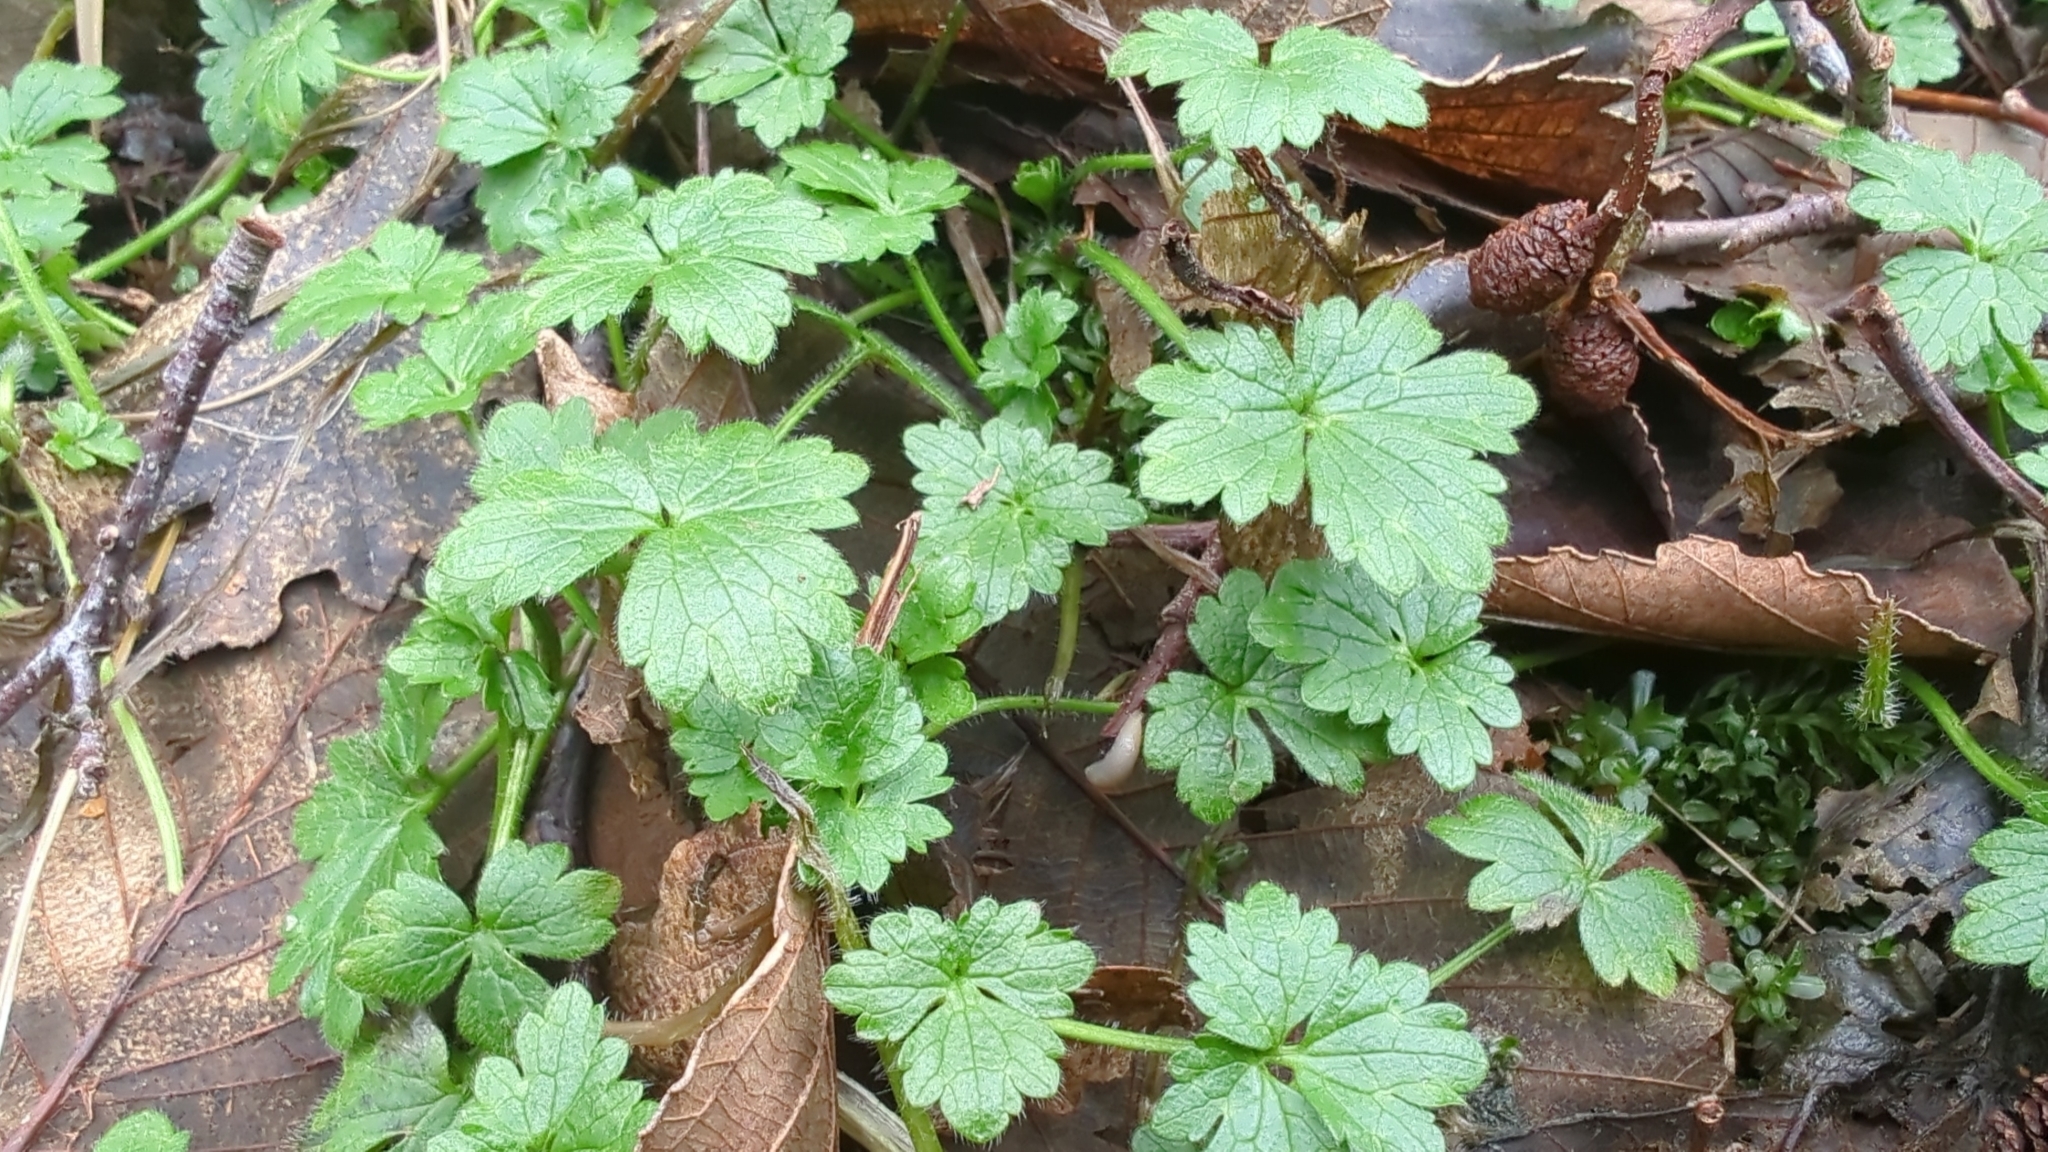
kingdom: Plantae
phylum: Tracheophyta
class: Magnoliopsida
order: Ranunculales
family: Ranunculaceae
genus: Ranunculus
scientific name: Ranunculus repens
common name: Creeping buttercup
